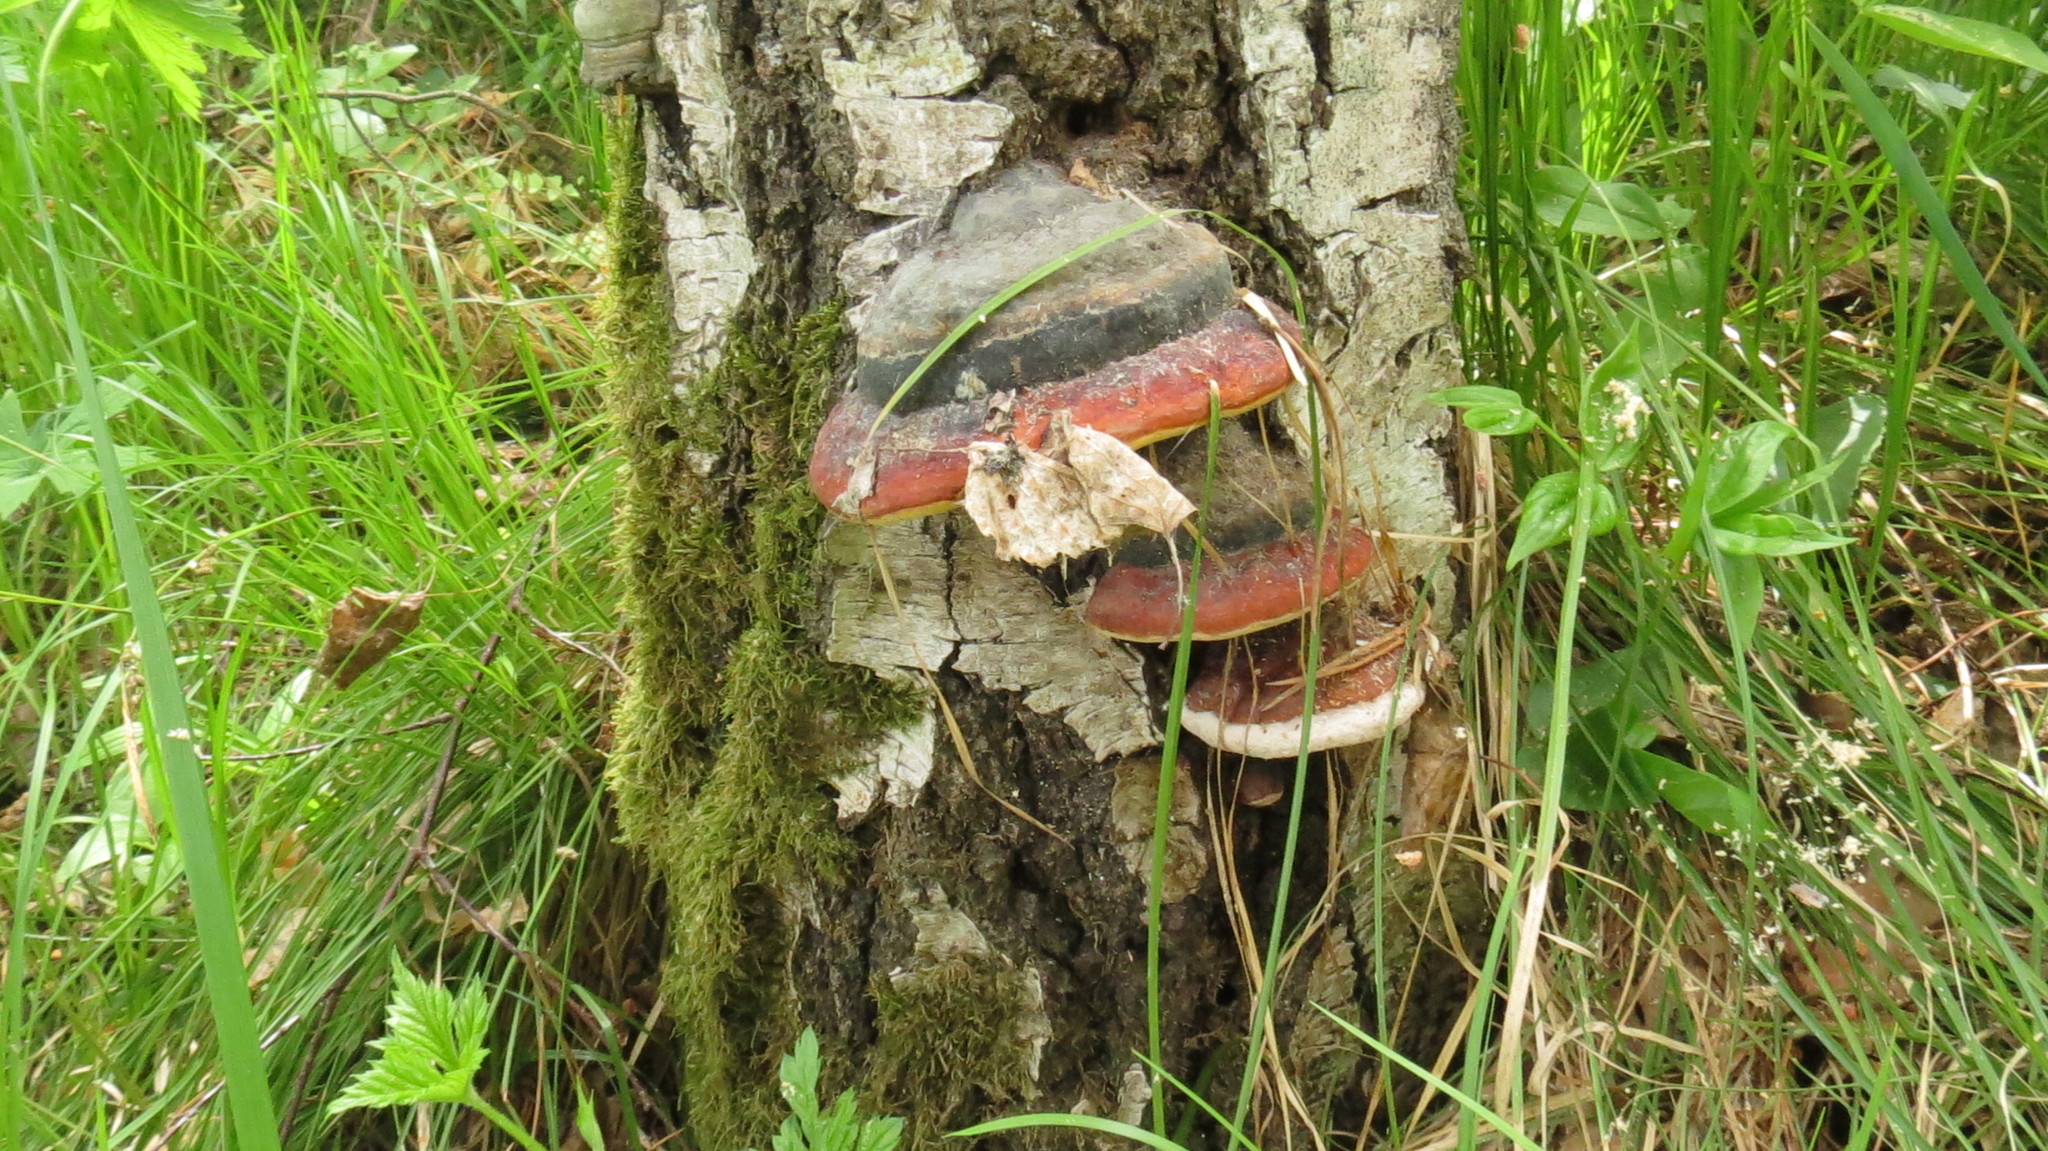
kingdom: Fungi
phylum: Basidiomycota
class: Agaricomycetes
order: Polyporales
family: Fomitopsidaceae
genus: Fomitopsis
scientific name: Fomitopsis pinicola
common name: Red-belted bracket
